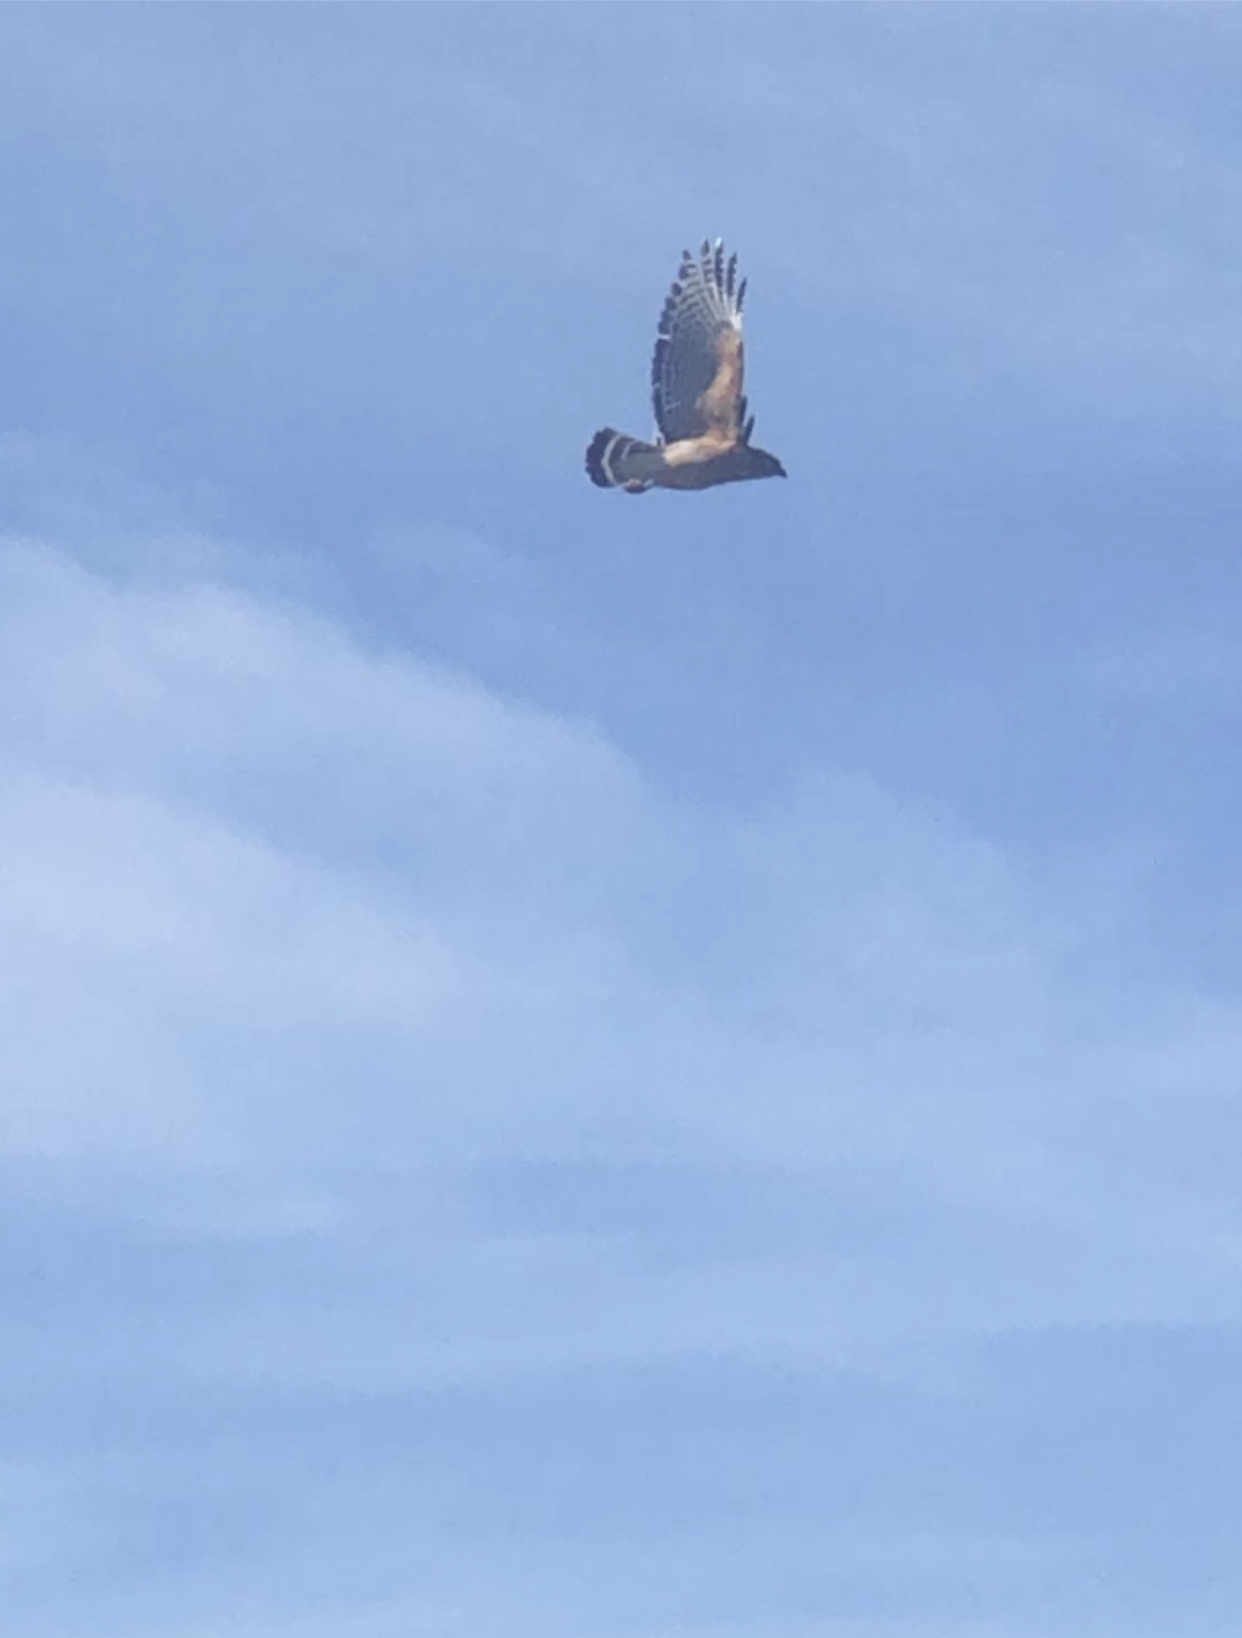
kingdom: Animalia
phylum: Chordata
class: Aves
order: Accipitriformes
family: Accipitridae
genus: Buteo
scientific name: Buteo lineatus
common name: Red-shouldered hawk
